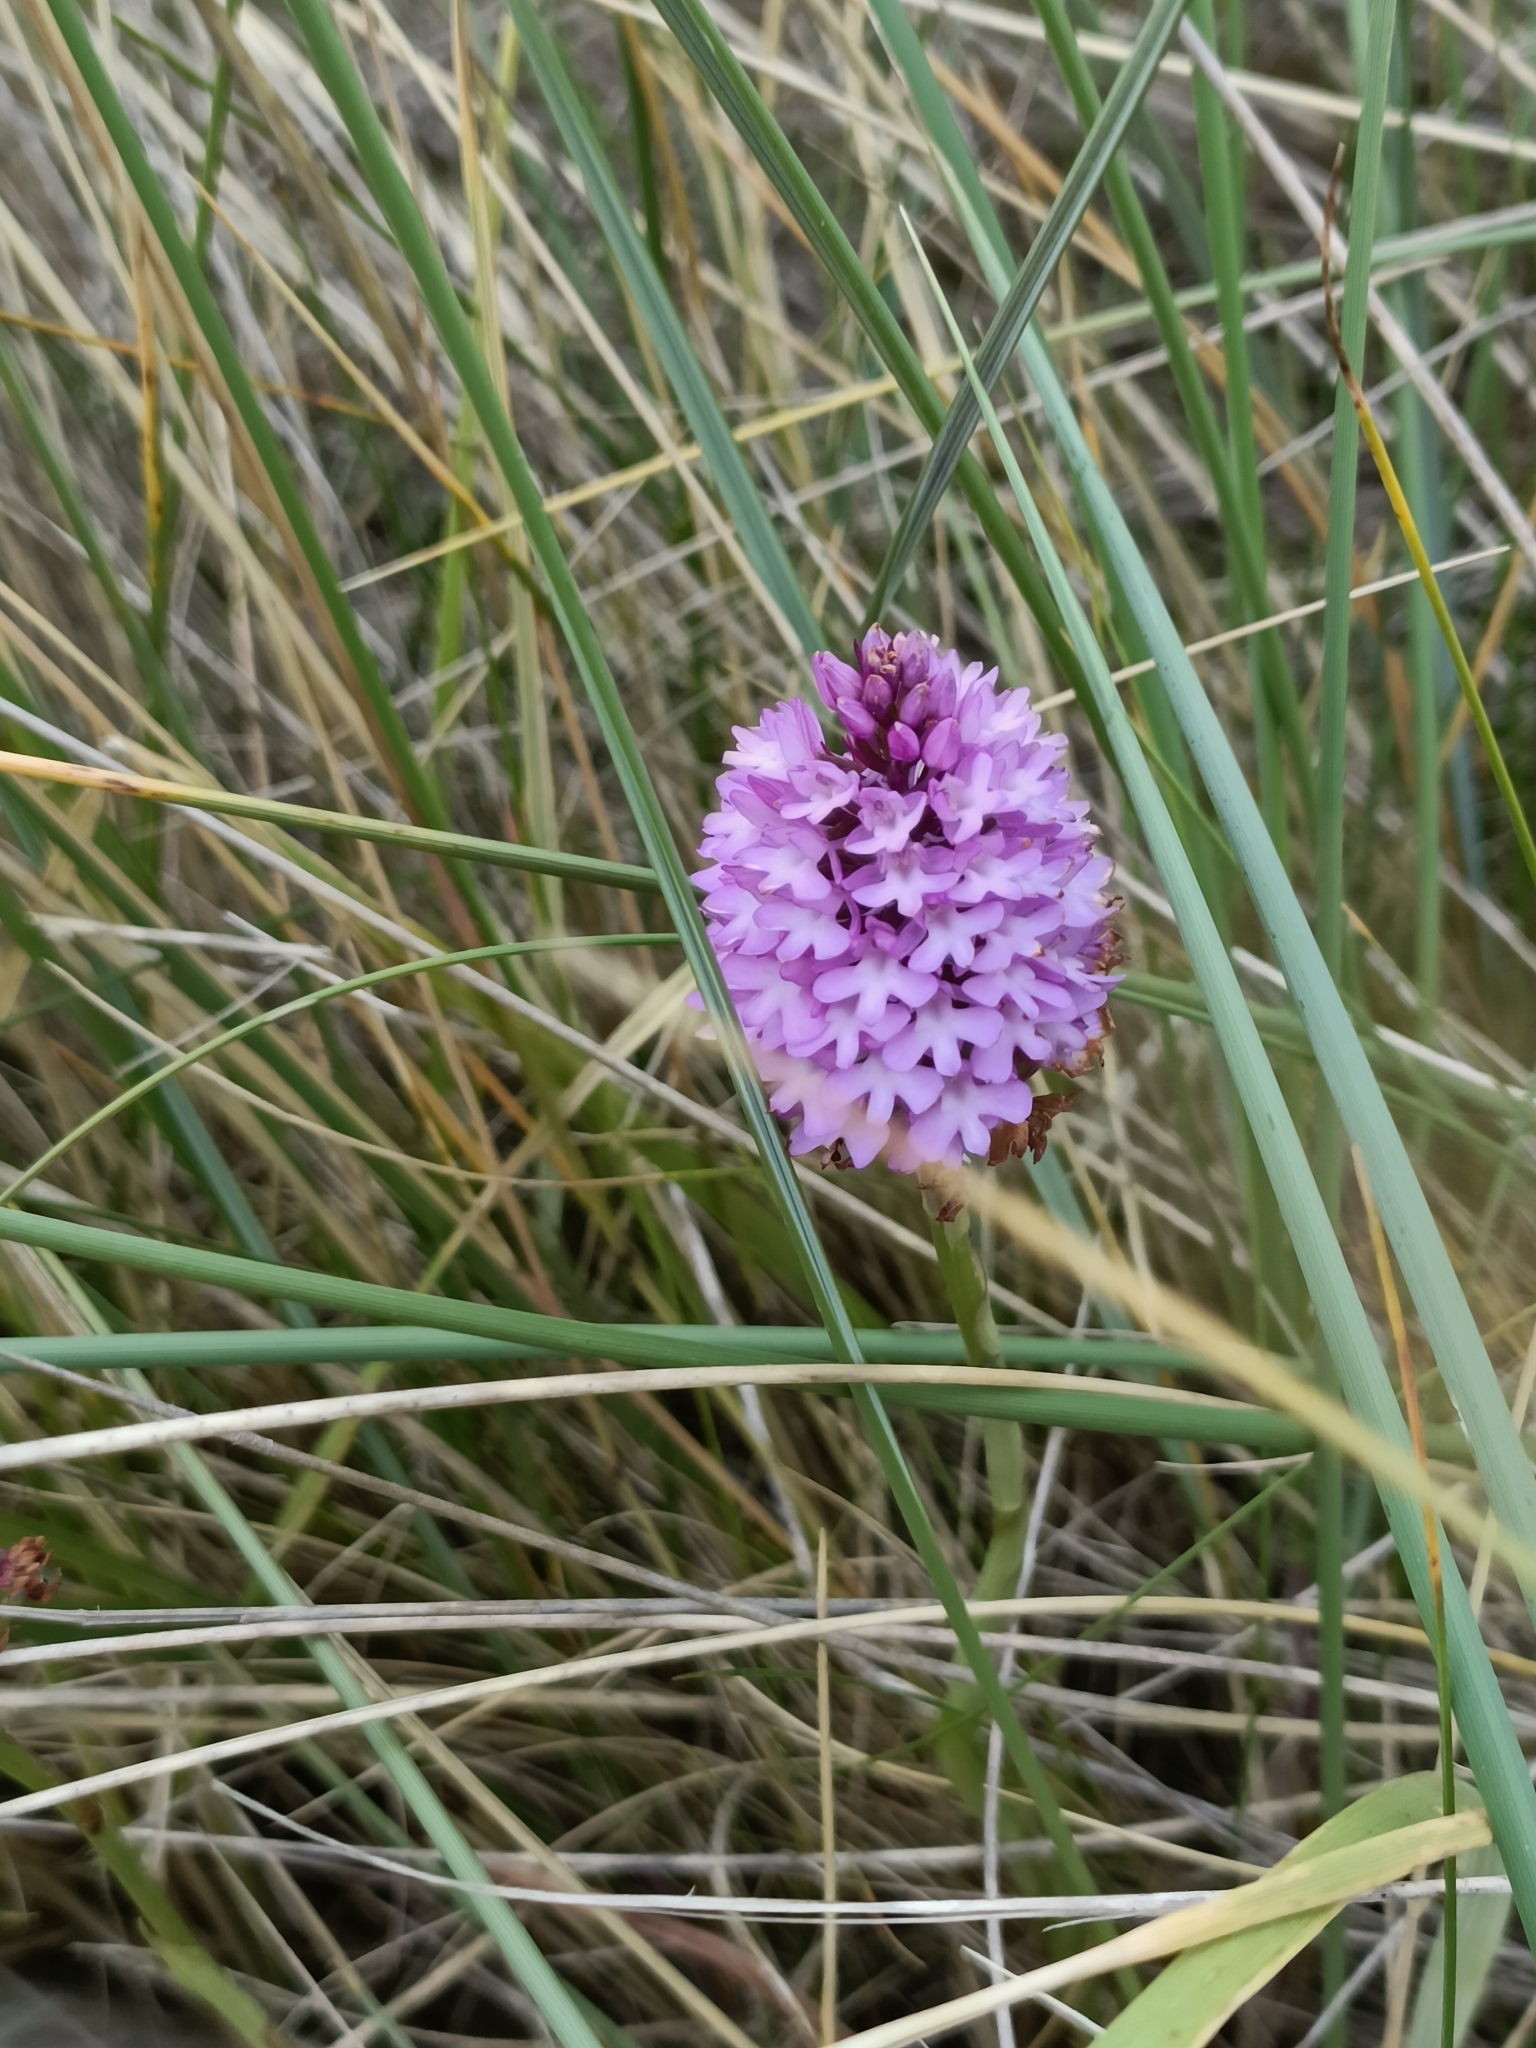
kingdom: Plantae
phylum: Tracheophyta
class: Liliopsida
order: Asparagales
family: Orchidaceae
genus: Anacamptis
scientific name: Anacamptis pyramidalis
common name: Pyramidal orchid
